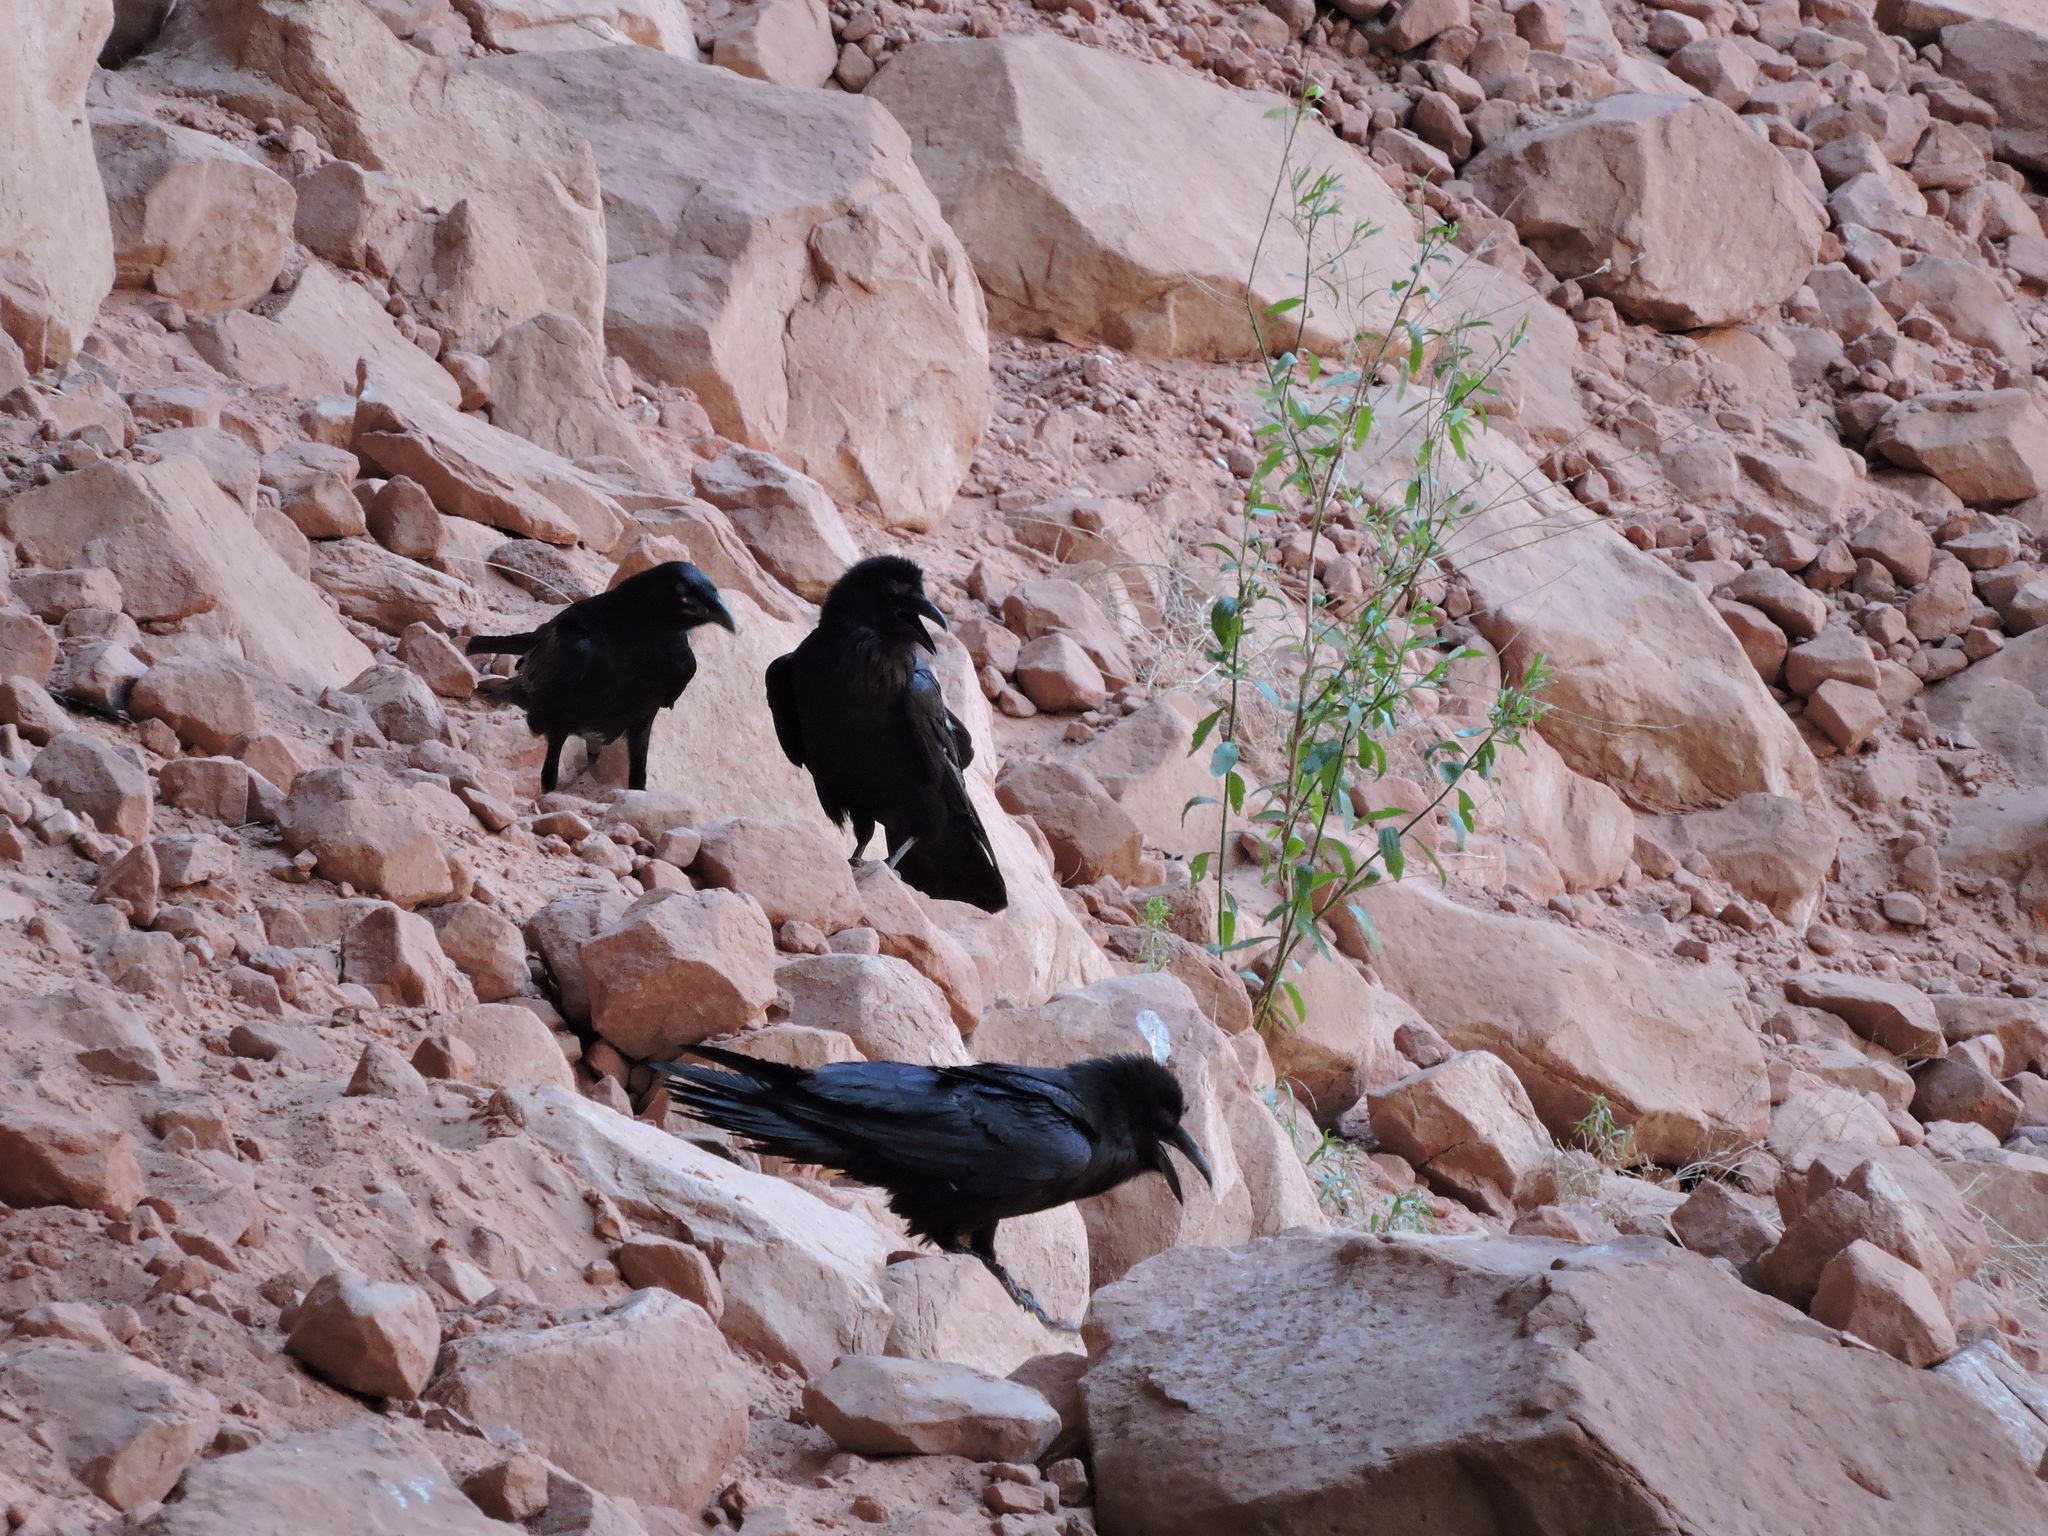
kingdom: Animalia
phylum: Chordata
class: Aves
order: Passeriformes
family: Corvidae
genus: Corvus
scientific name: Corvus corax
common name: Common raven
